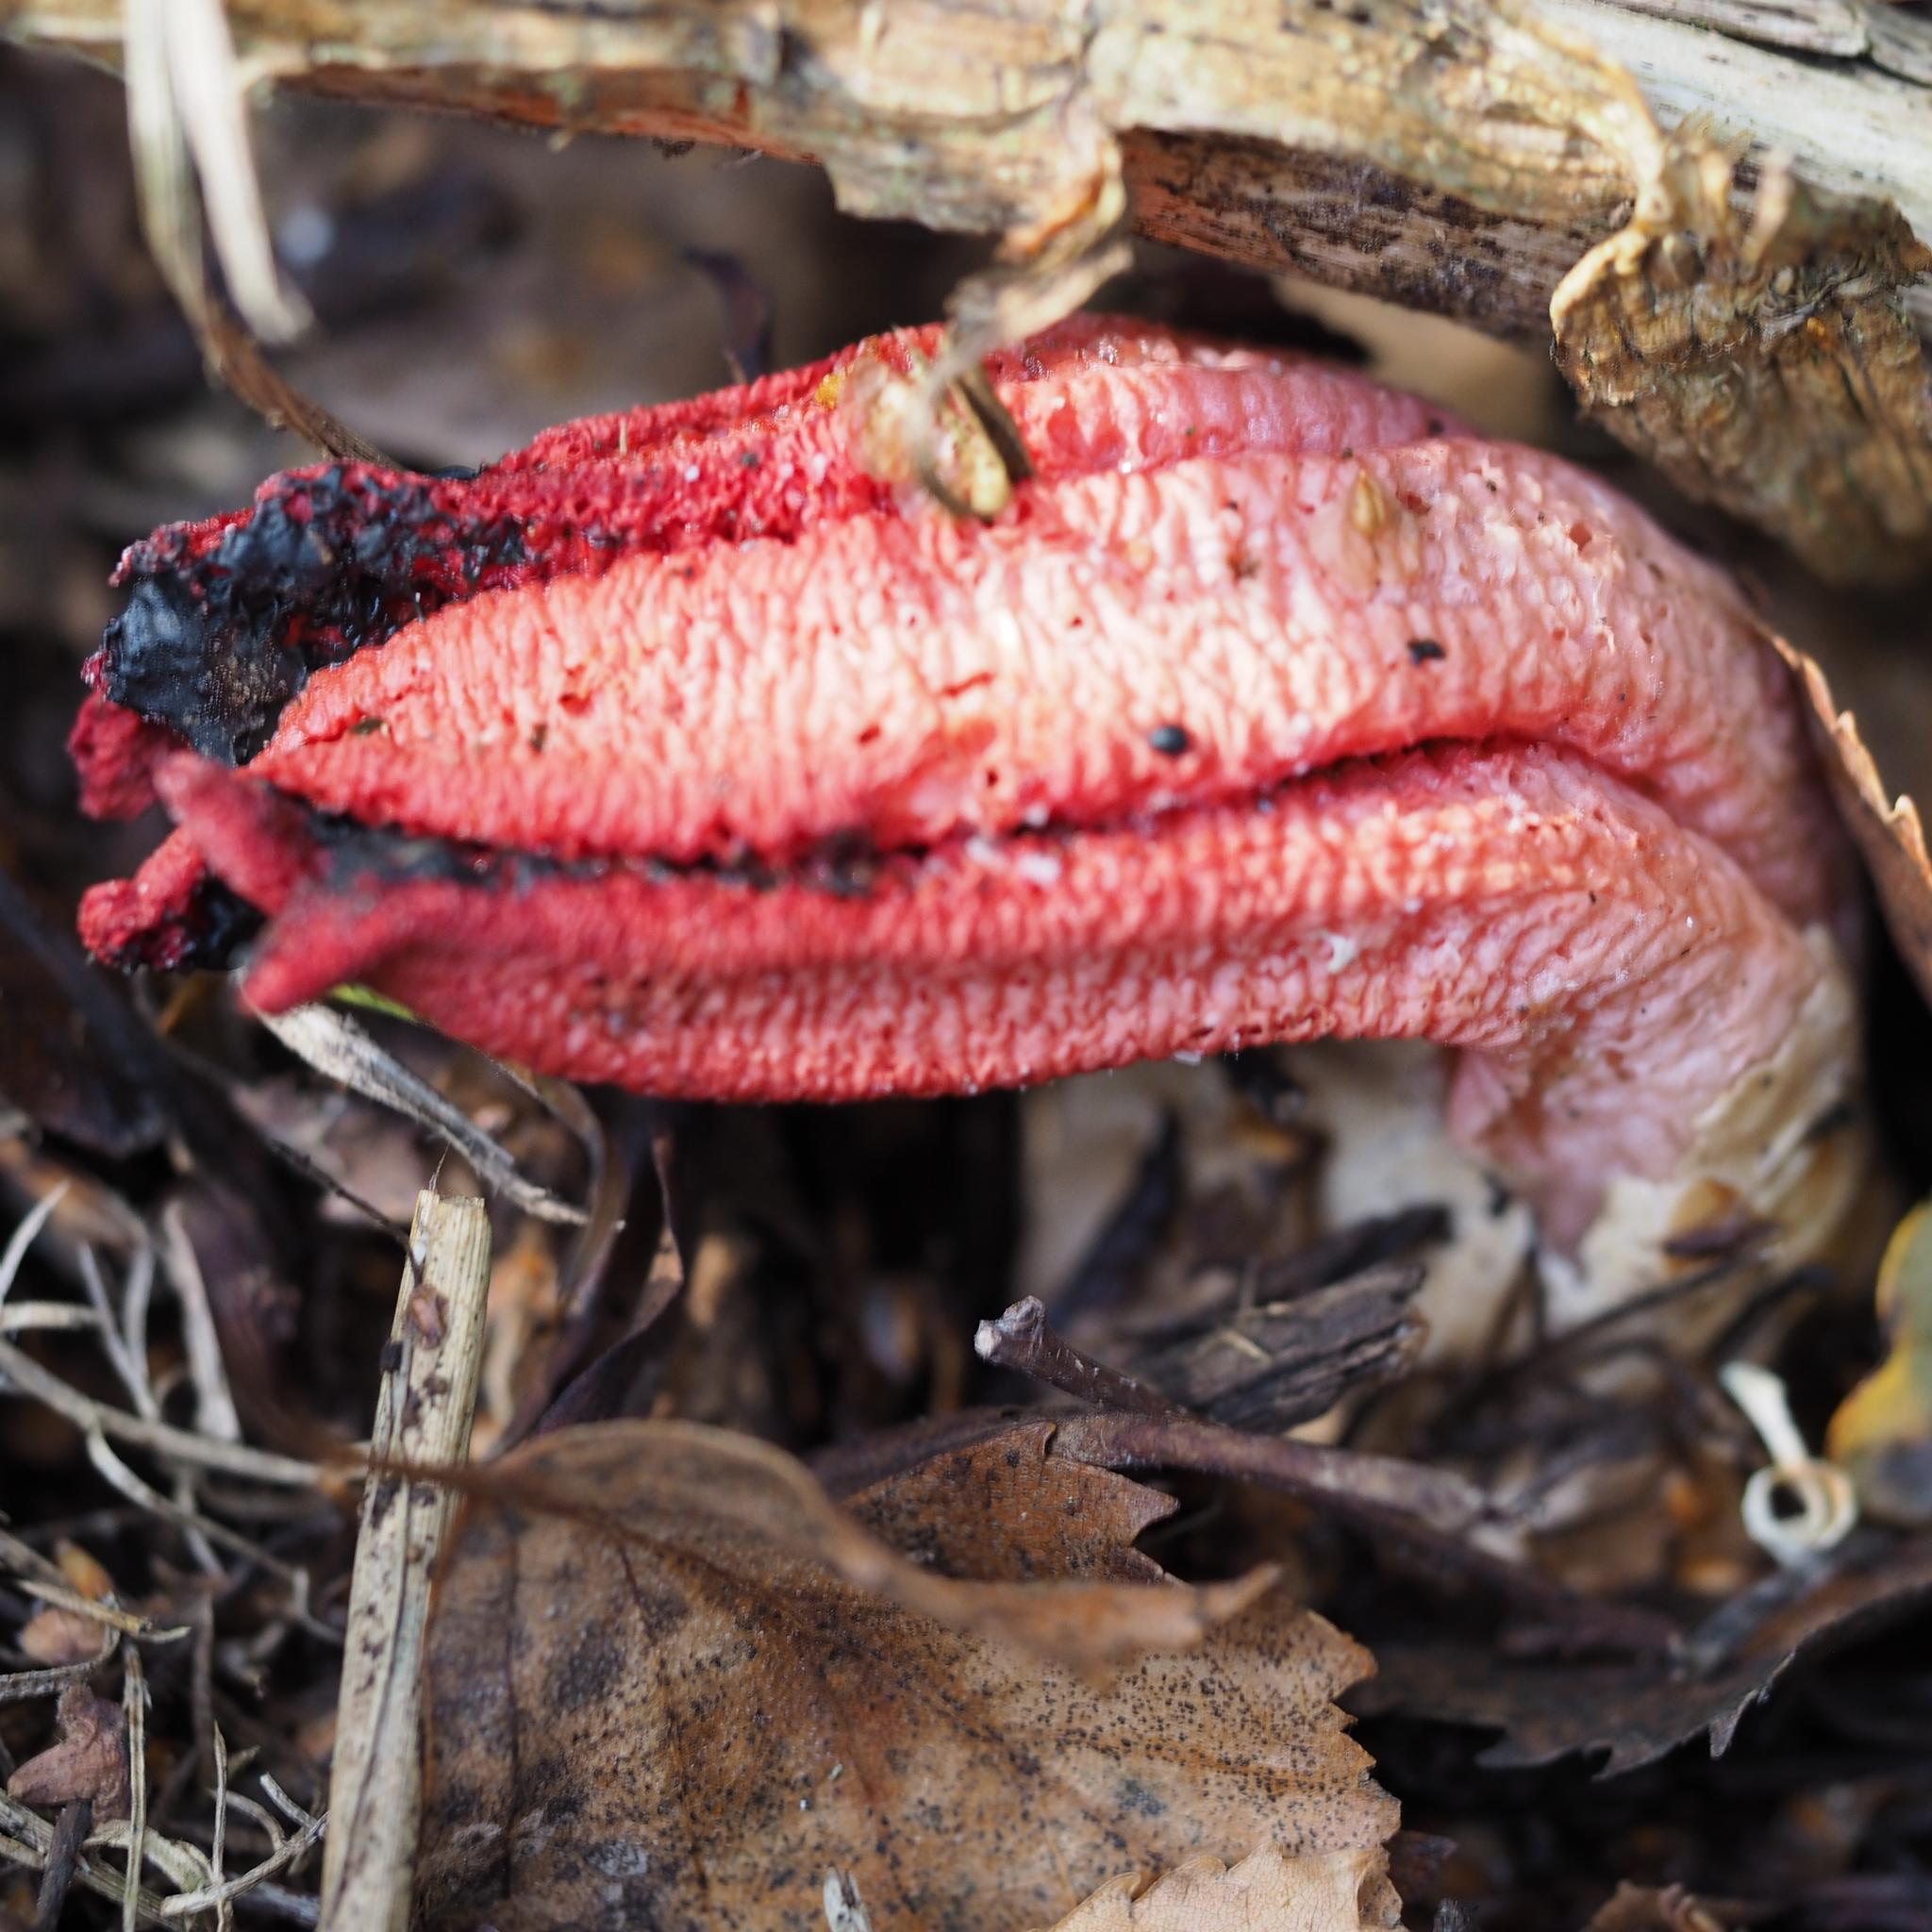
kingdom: Fungi
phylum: Basidiomycota
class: Agaricomycetes
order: Phallales
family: Phallaceae
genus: Clathrus
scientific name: Clathrus archeri
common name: Devil's fingers
